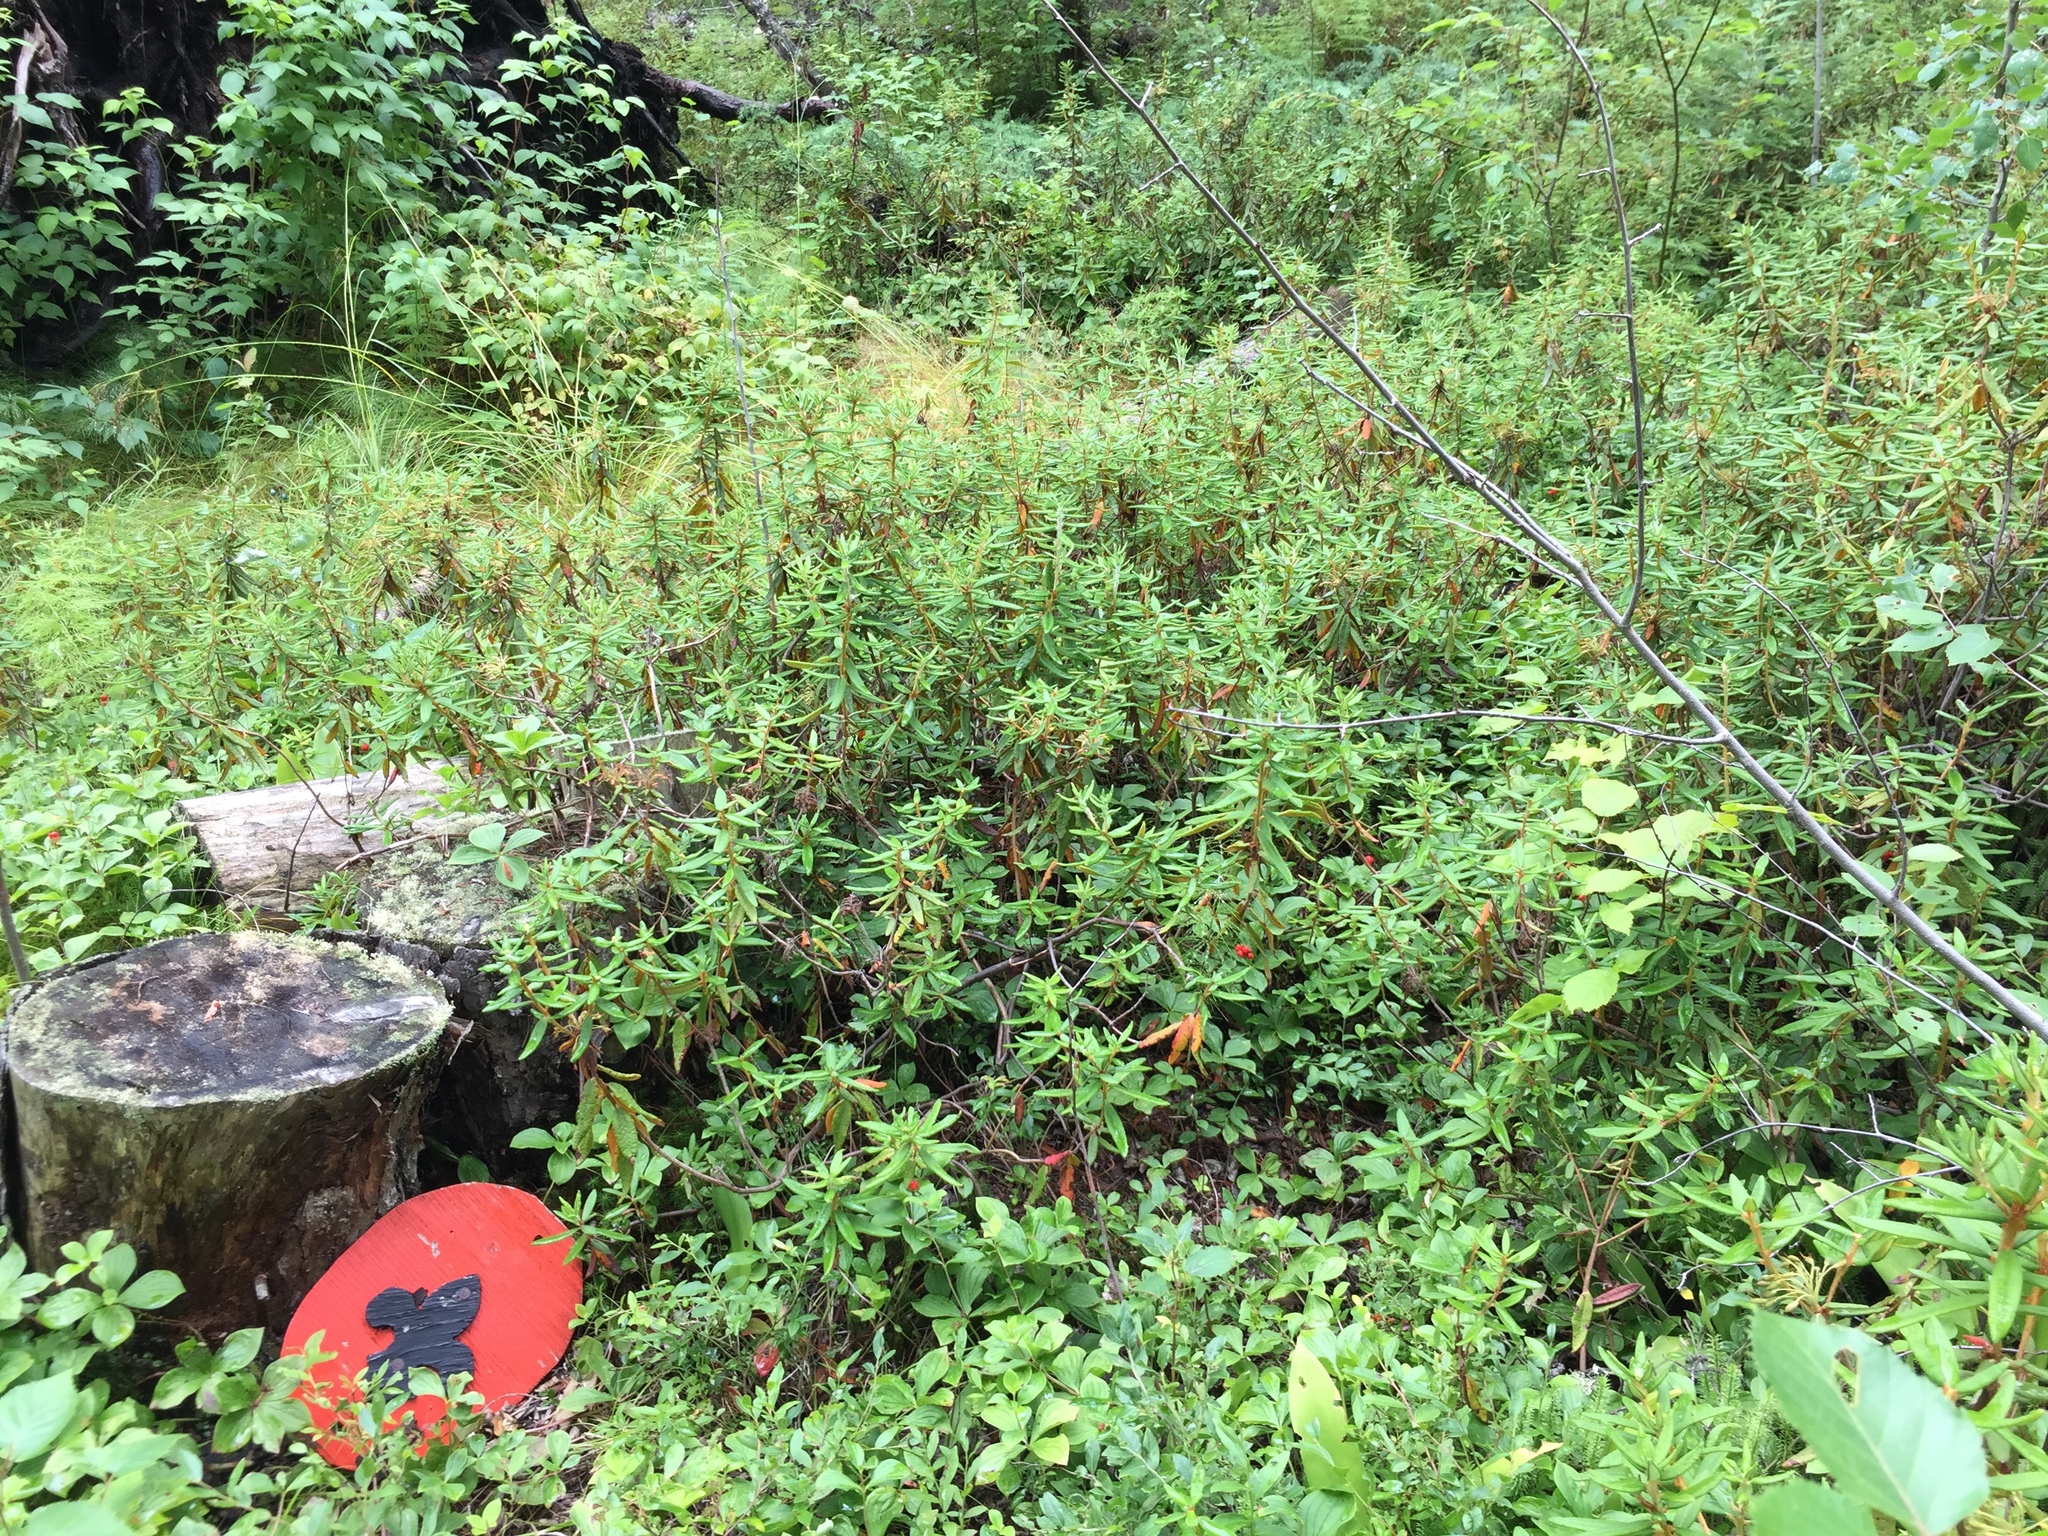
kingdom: Plantae
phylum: Tracheophyta
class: Magnoliopsida
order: Ericales
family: Ericaceae
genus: Rhododendron
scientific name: Rhododendron groenlandicum
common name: Bog labrador tea
